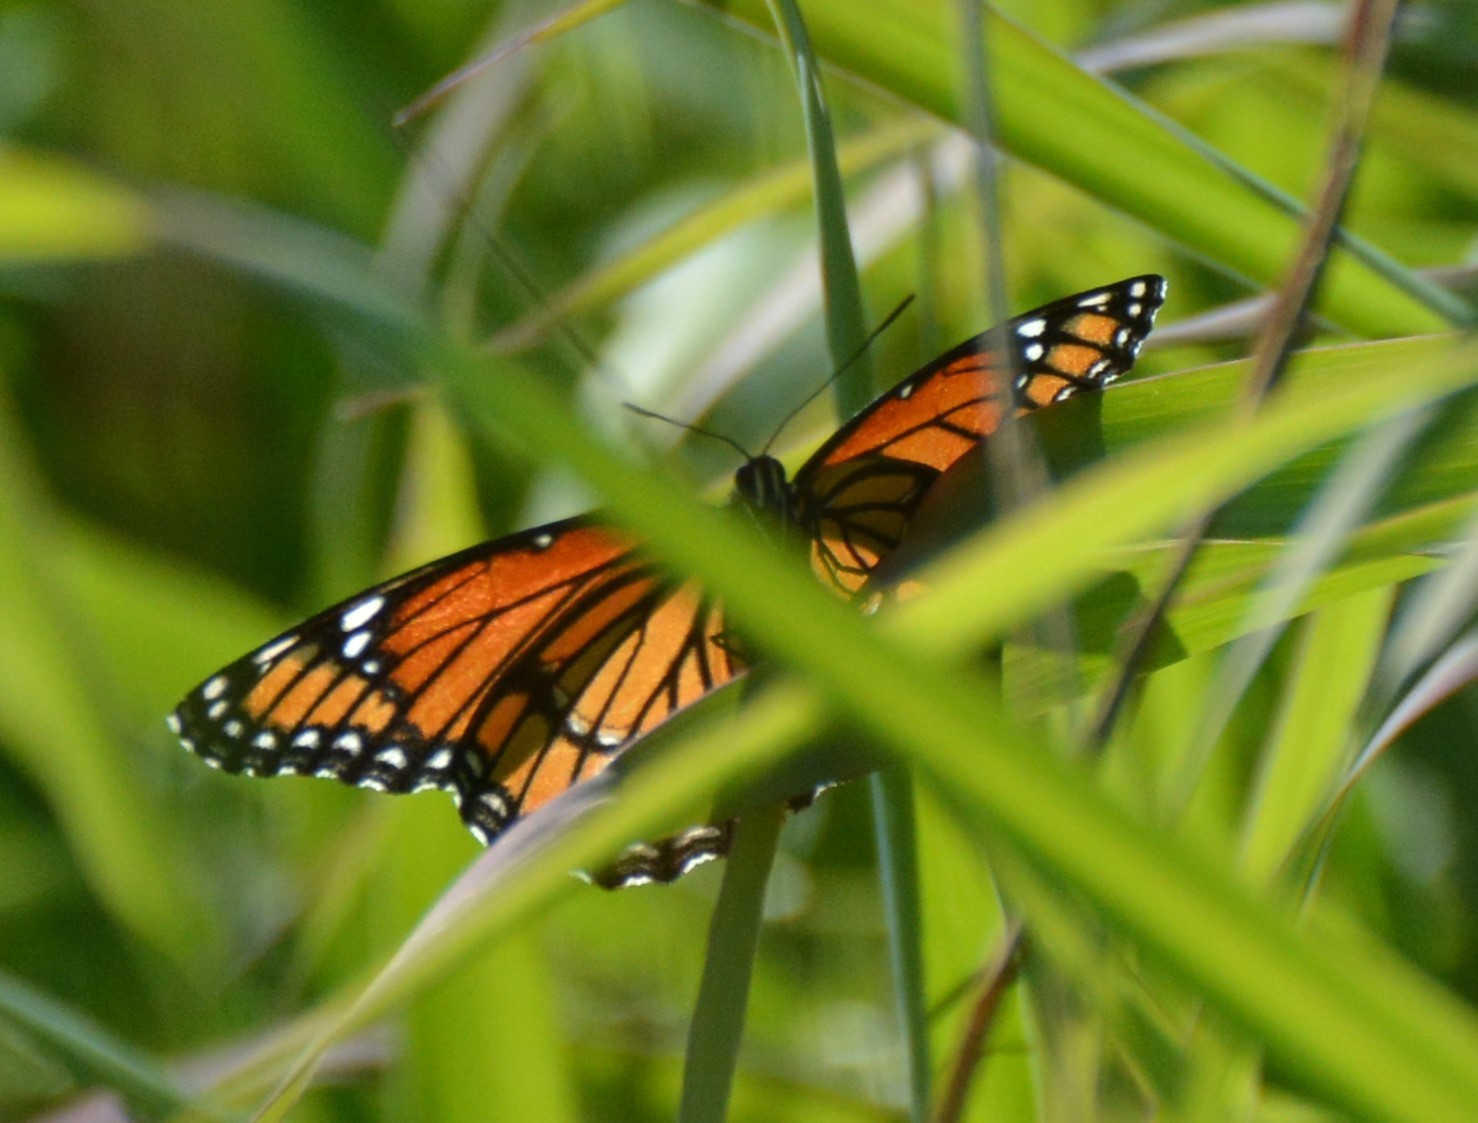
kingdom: Animalia
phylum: Arthropoda
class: Insecta
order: Lepidoptera
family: Nymphalidae
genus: Limenitis
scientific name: Limenitis archippus
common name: Viceroy
